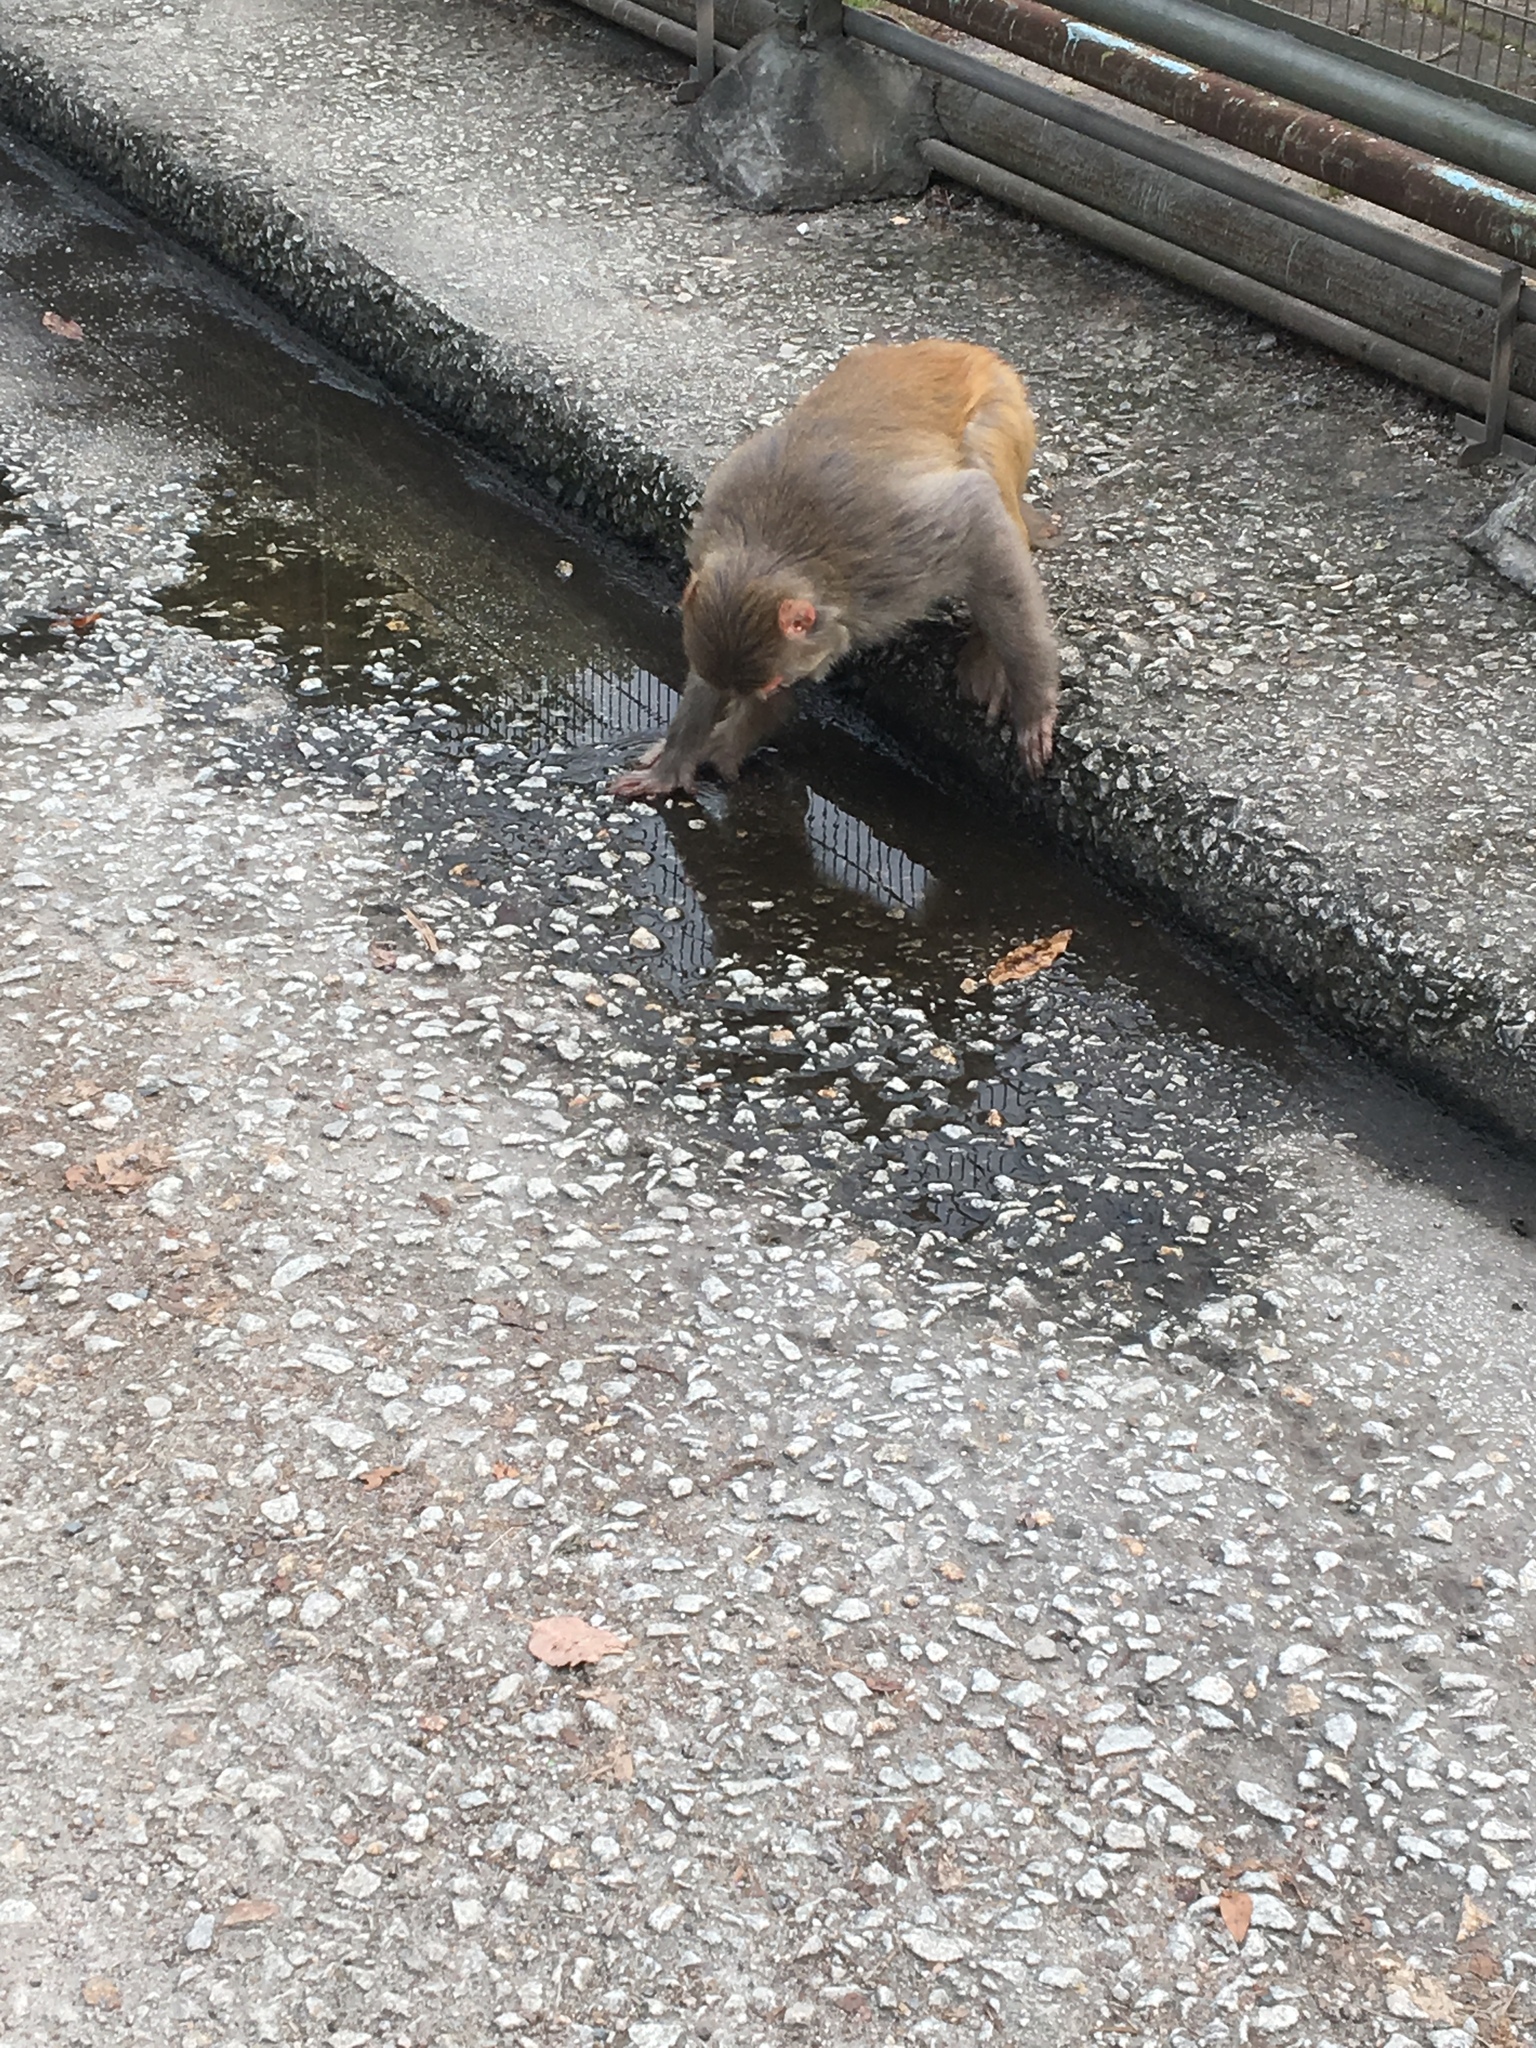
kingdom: Animalia
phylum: Chordata
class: Mammalia
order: Primates
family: Cercopithecidae
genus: Macaca
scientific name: Macaca mulatta
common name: Rhesus monkey
